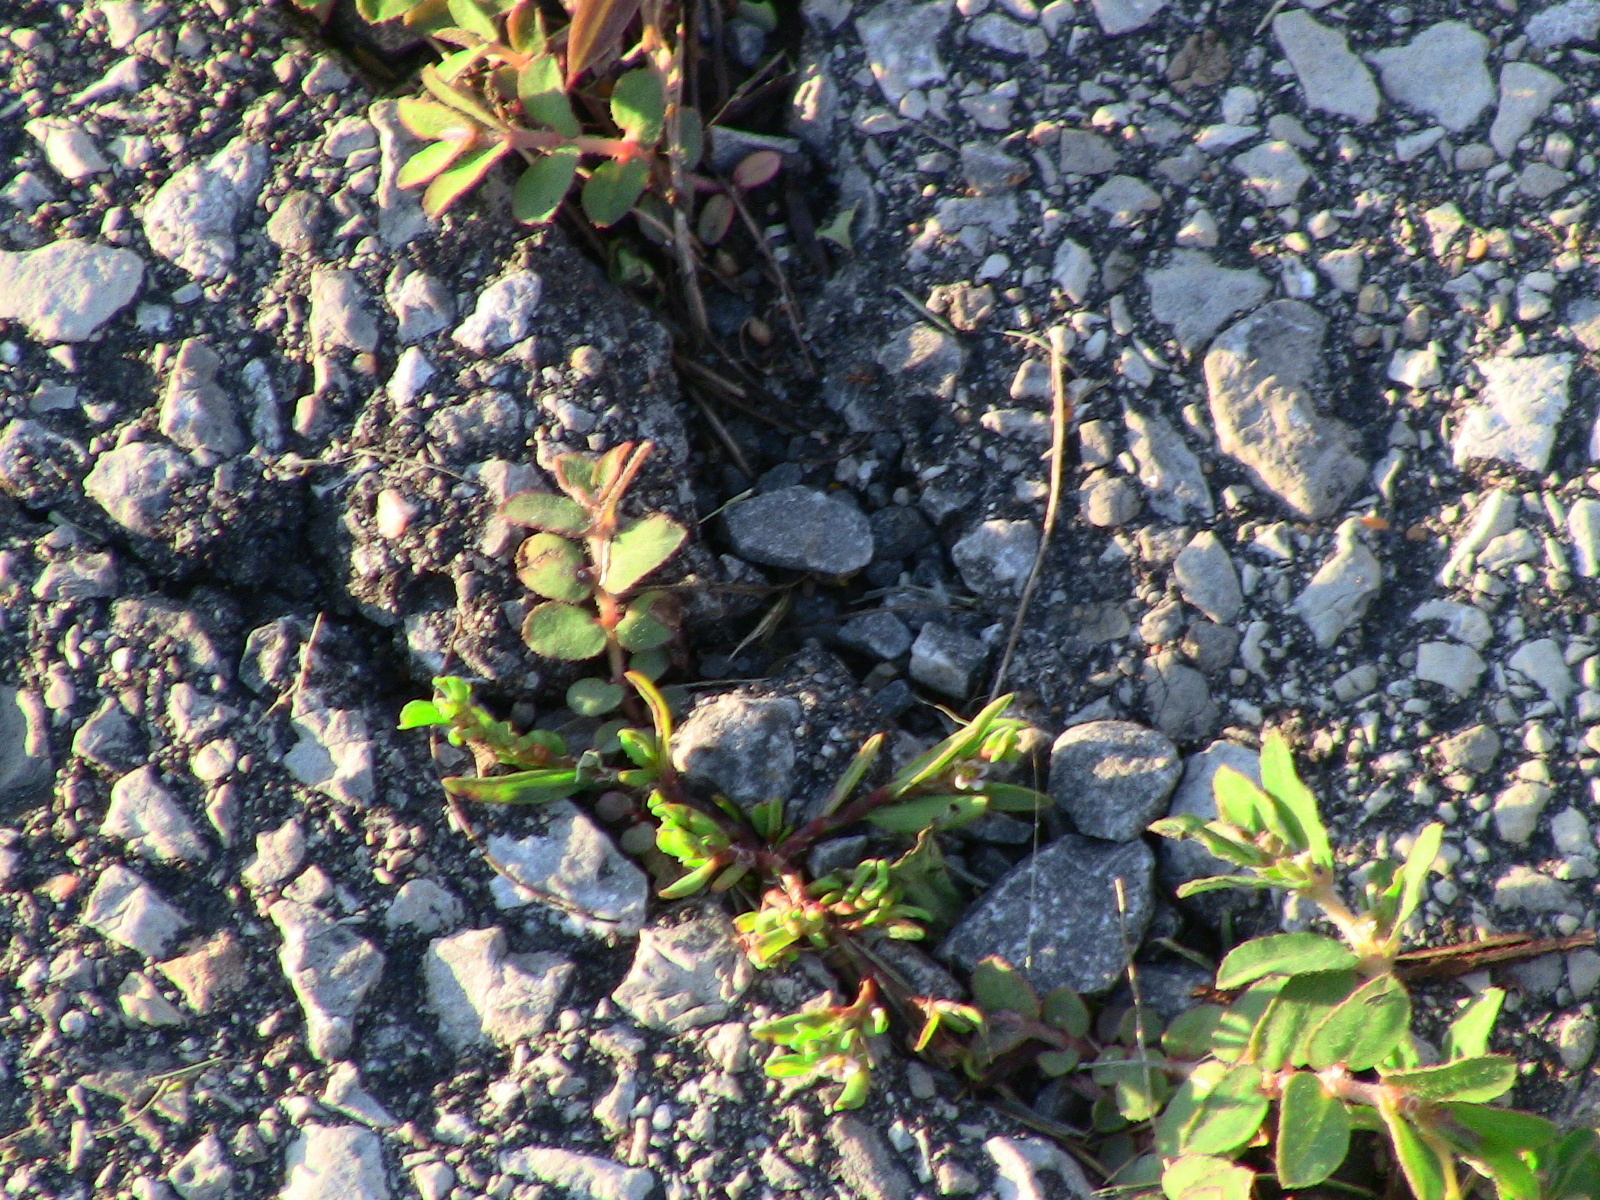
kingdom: Plantae
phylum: Tracheophyta
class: Magnoliopsida
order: Malpighiales
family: Euphorbiaceae
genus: Euphorbia
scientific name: Euphorbia maculata
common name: Spotted spurge
